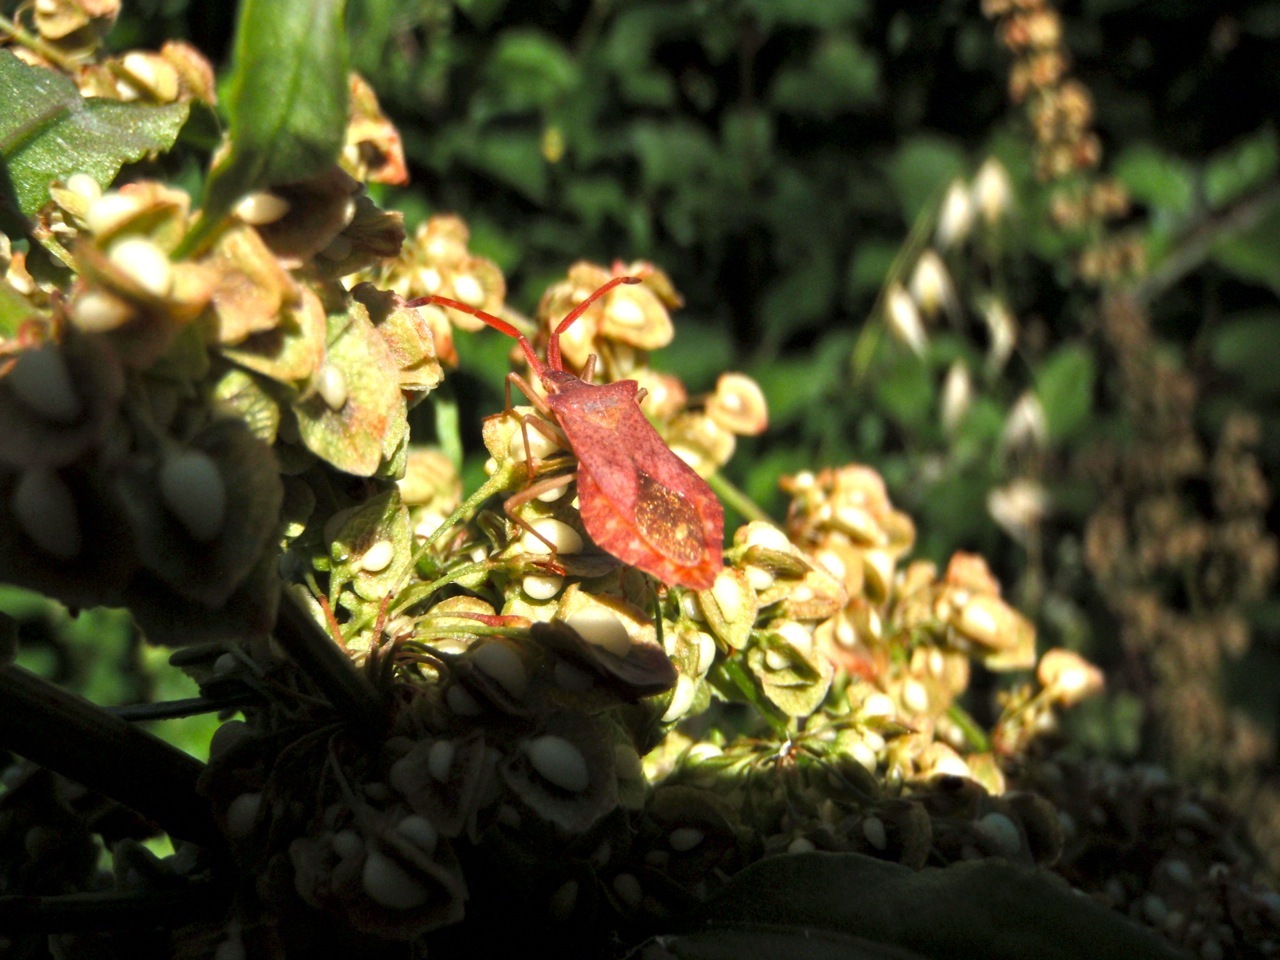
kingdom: Animalia
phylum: Arthropoda
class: Insecta
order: Hemiptera
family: Coreidae
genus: Haploprocta
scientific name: Haploprocta sulcicornis
